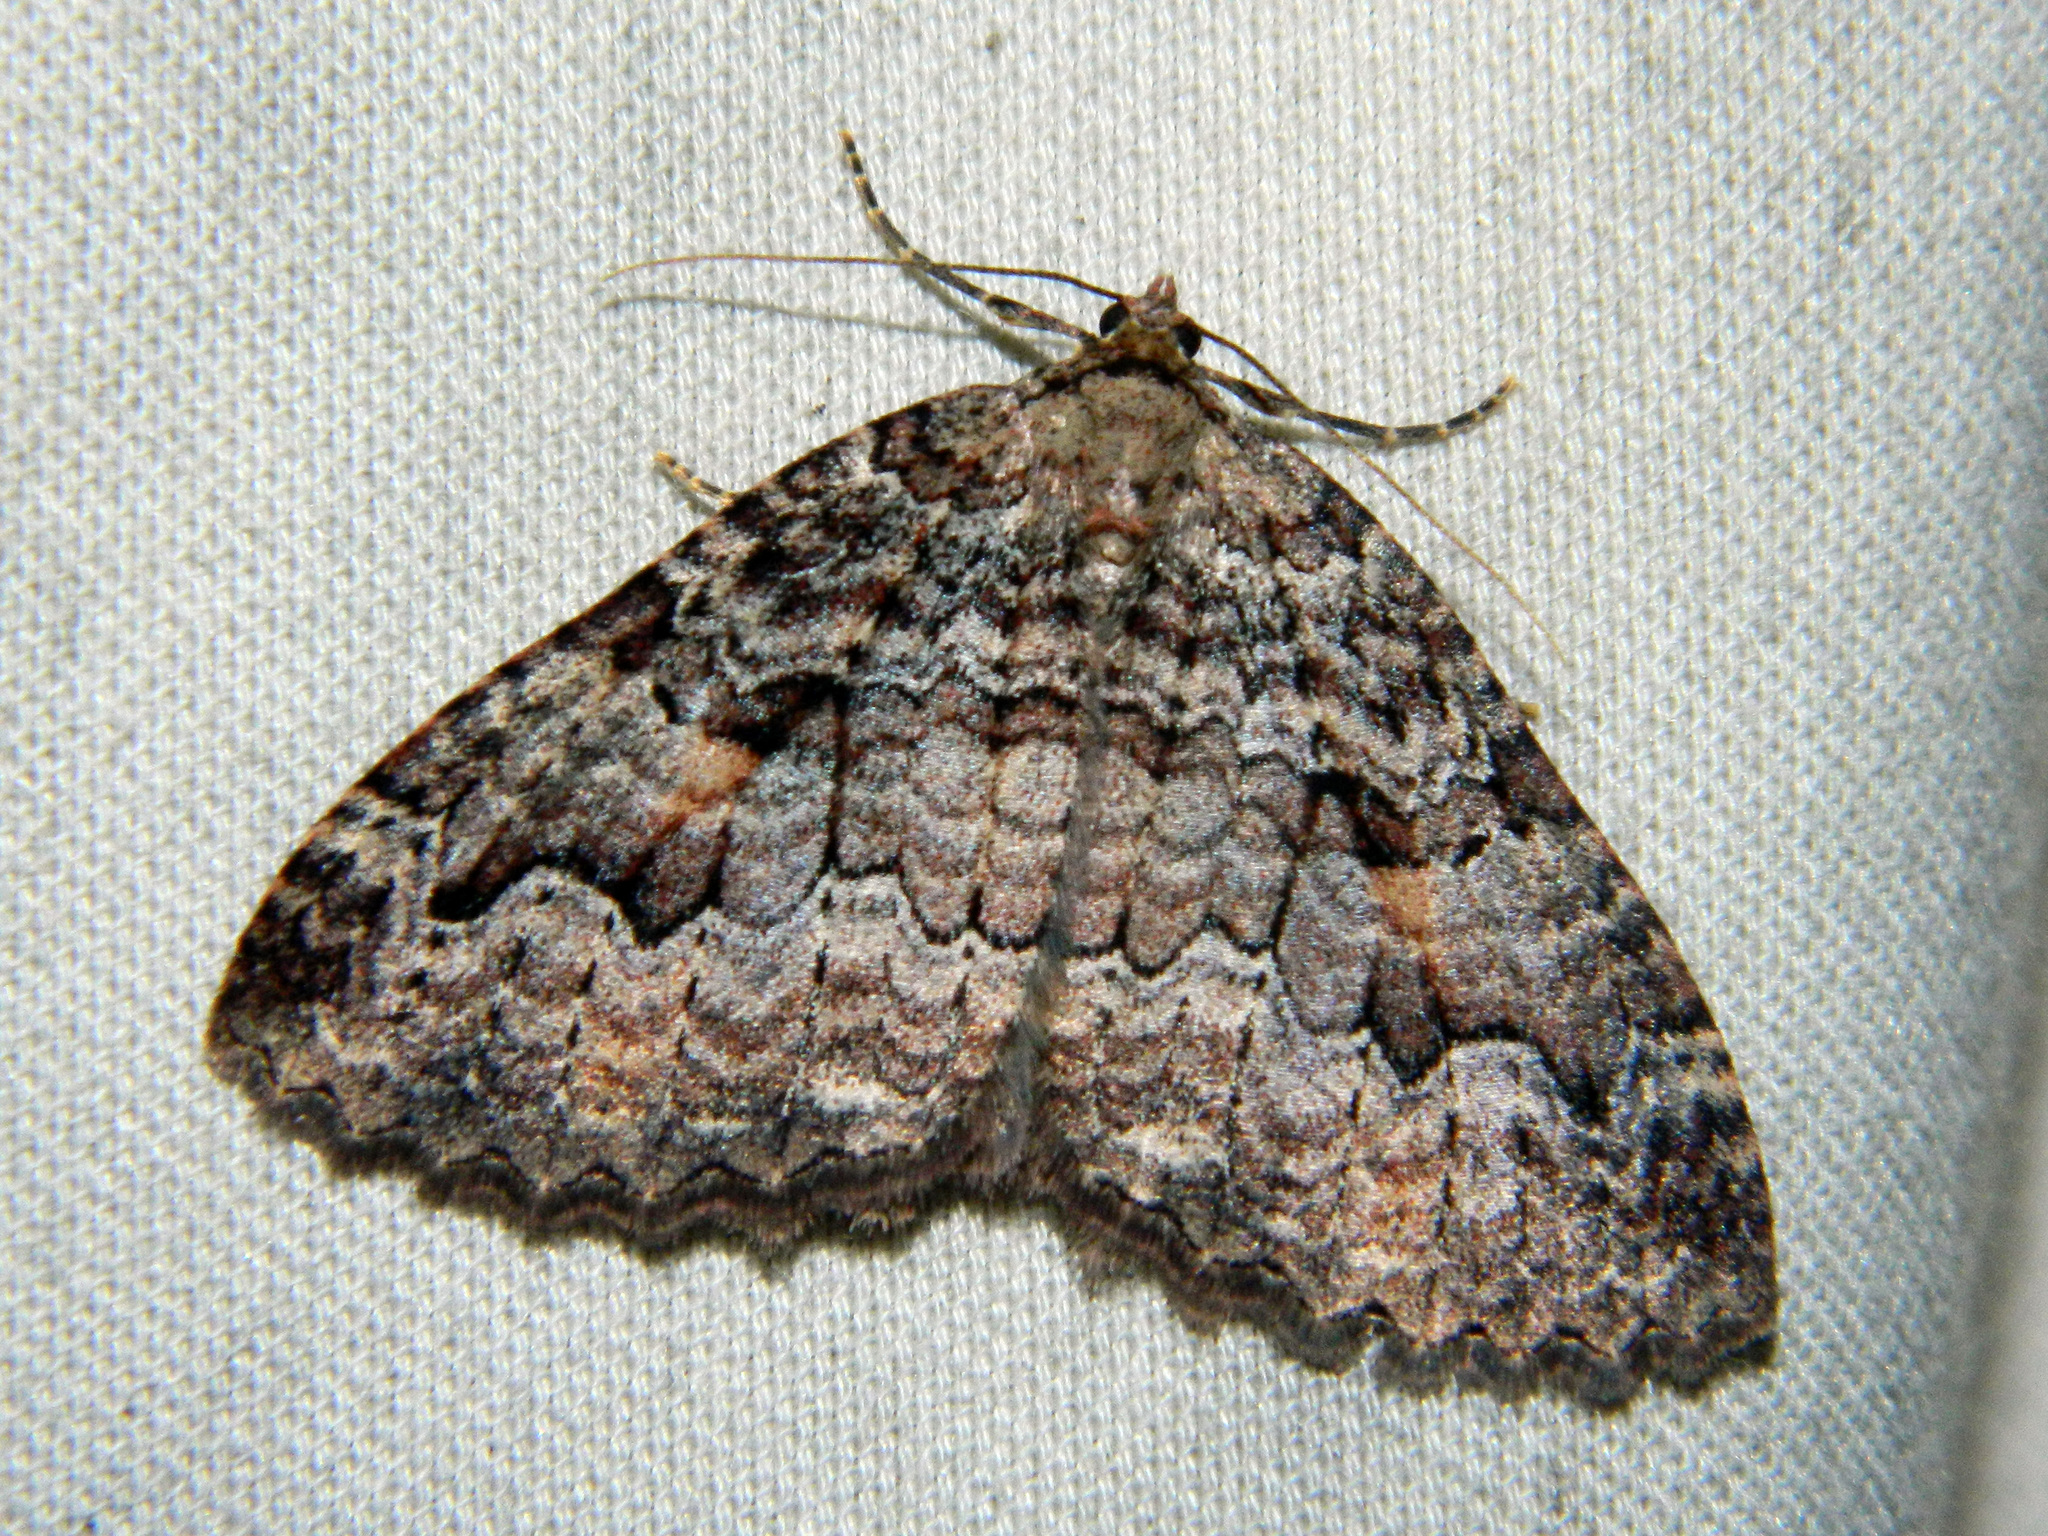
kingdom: Animalia
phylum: Arthropoda
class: Insecta
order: Lepidoptera
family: Geometridae
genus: Triphosa
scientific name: Triphosa haesitata
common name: Tissue moth
